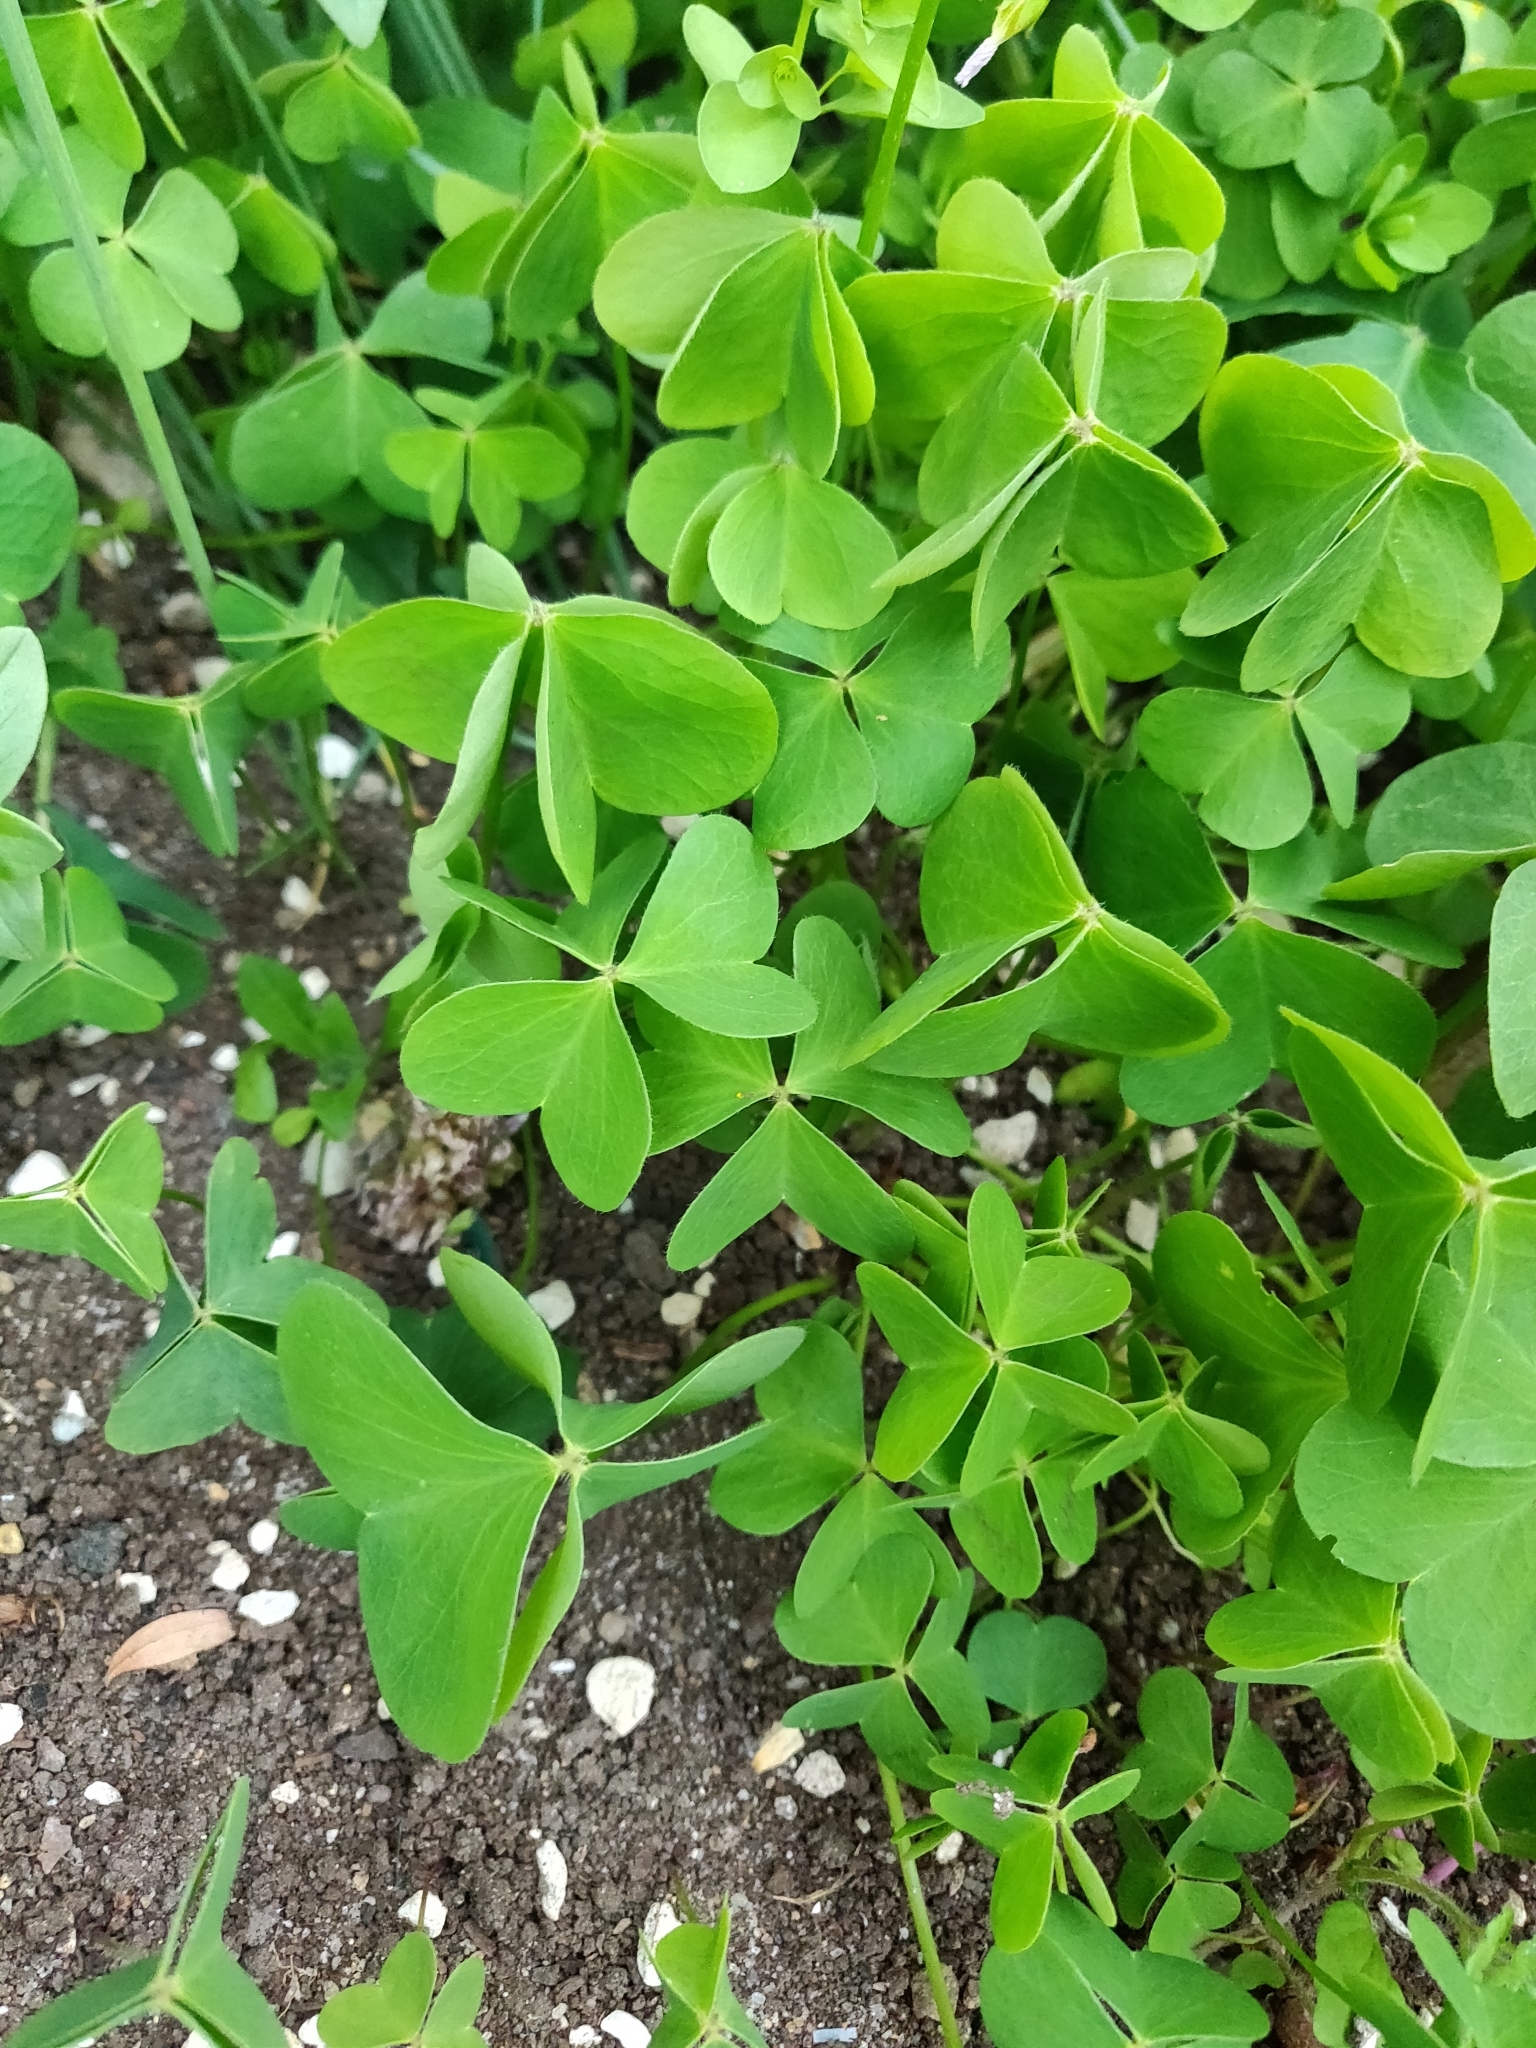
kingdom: Plantae
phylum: Tracheophyta
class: Magnoliopsida
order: Oxalidales
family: Oxalidaceae
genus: Oxalis
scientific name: Oxalis latifolia
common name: Garden pink-sorrel
